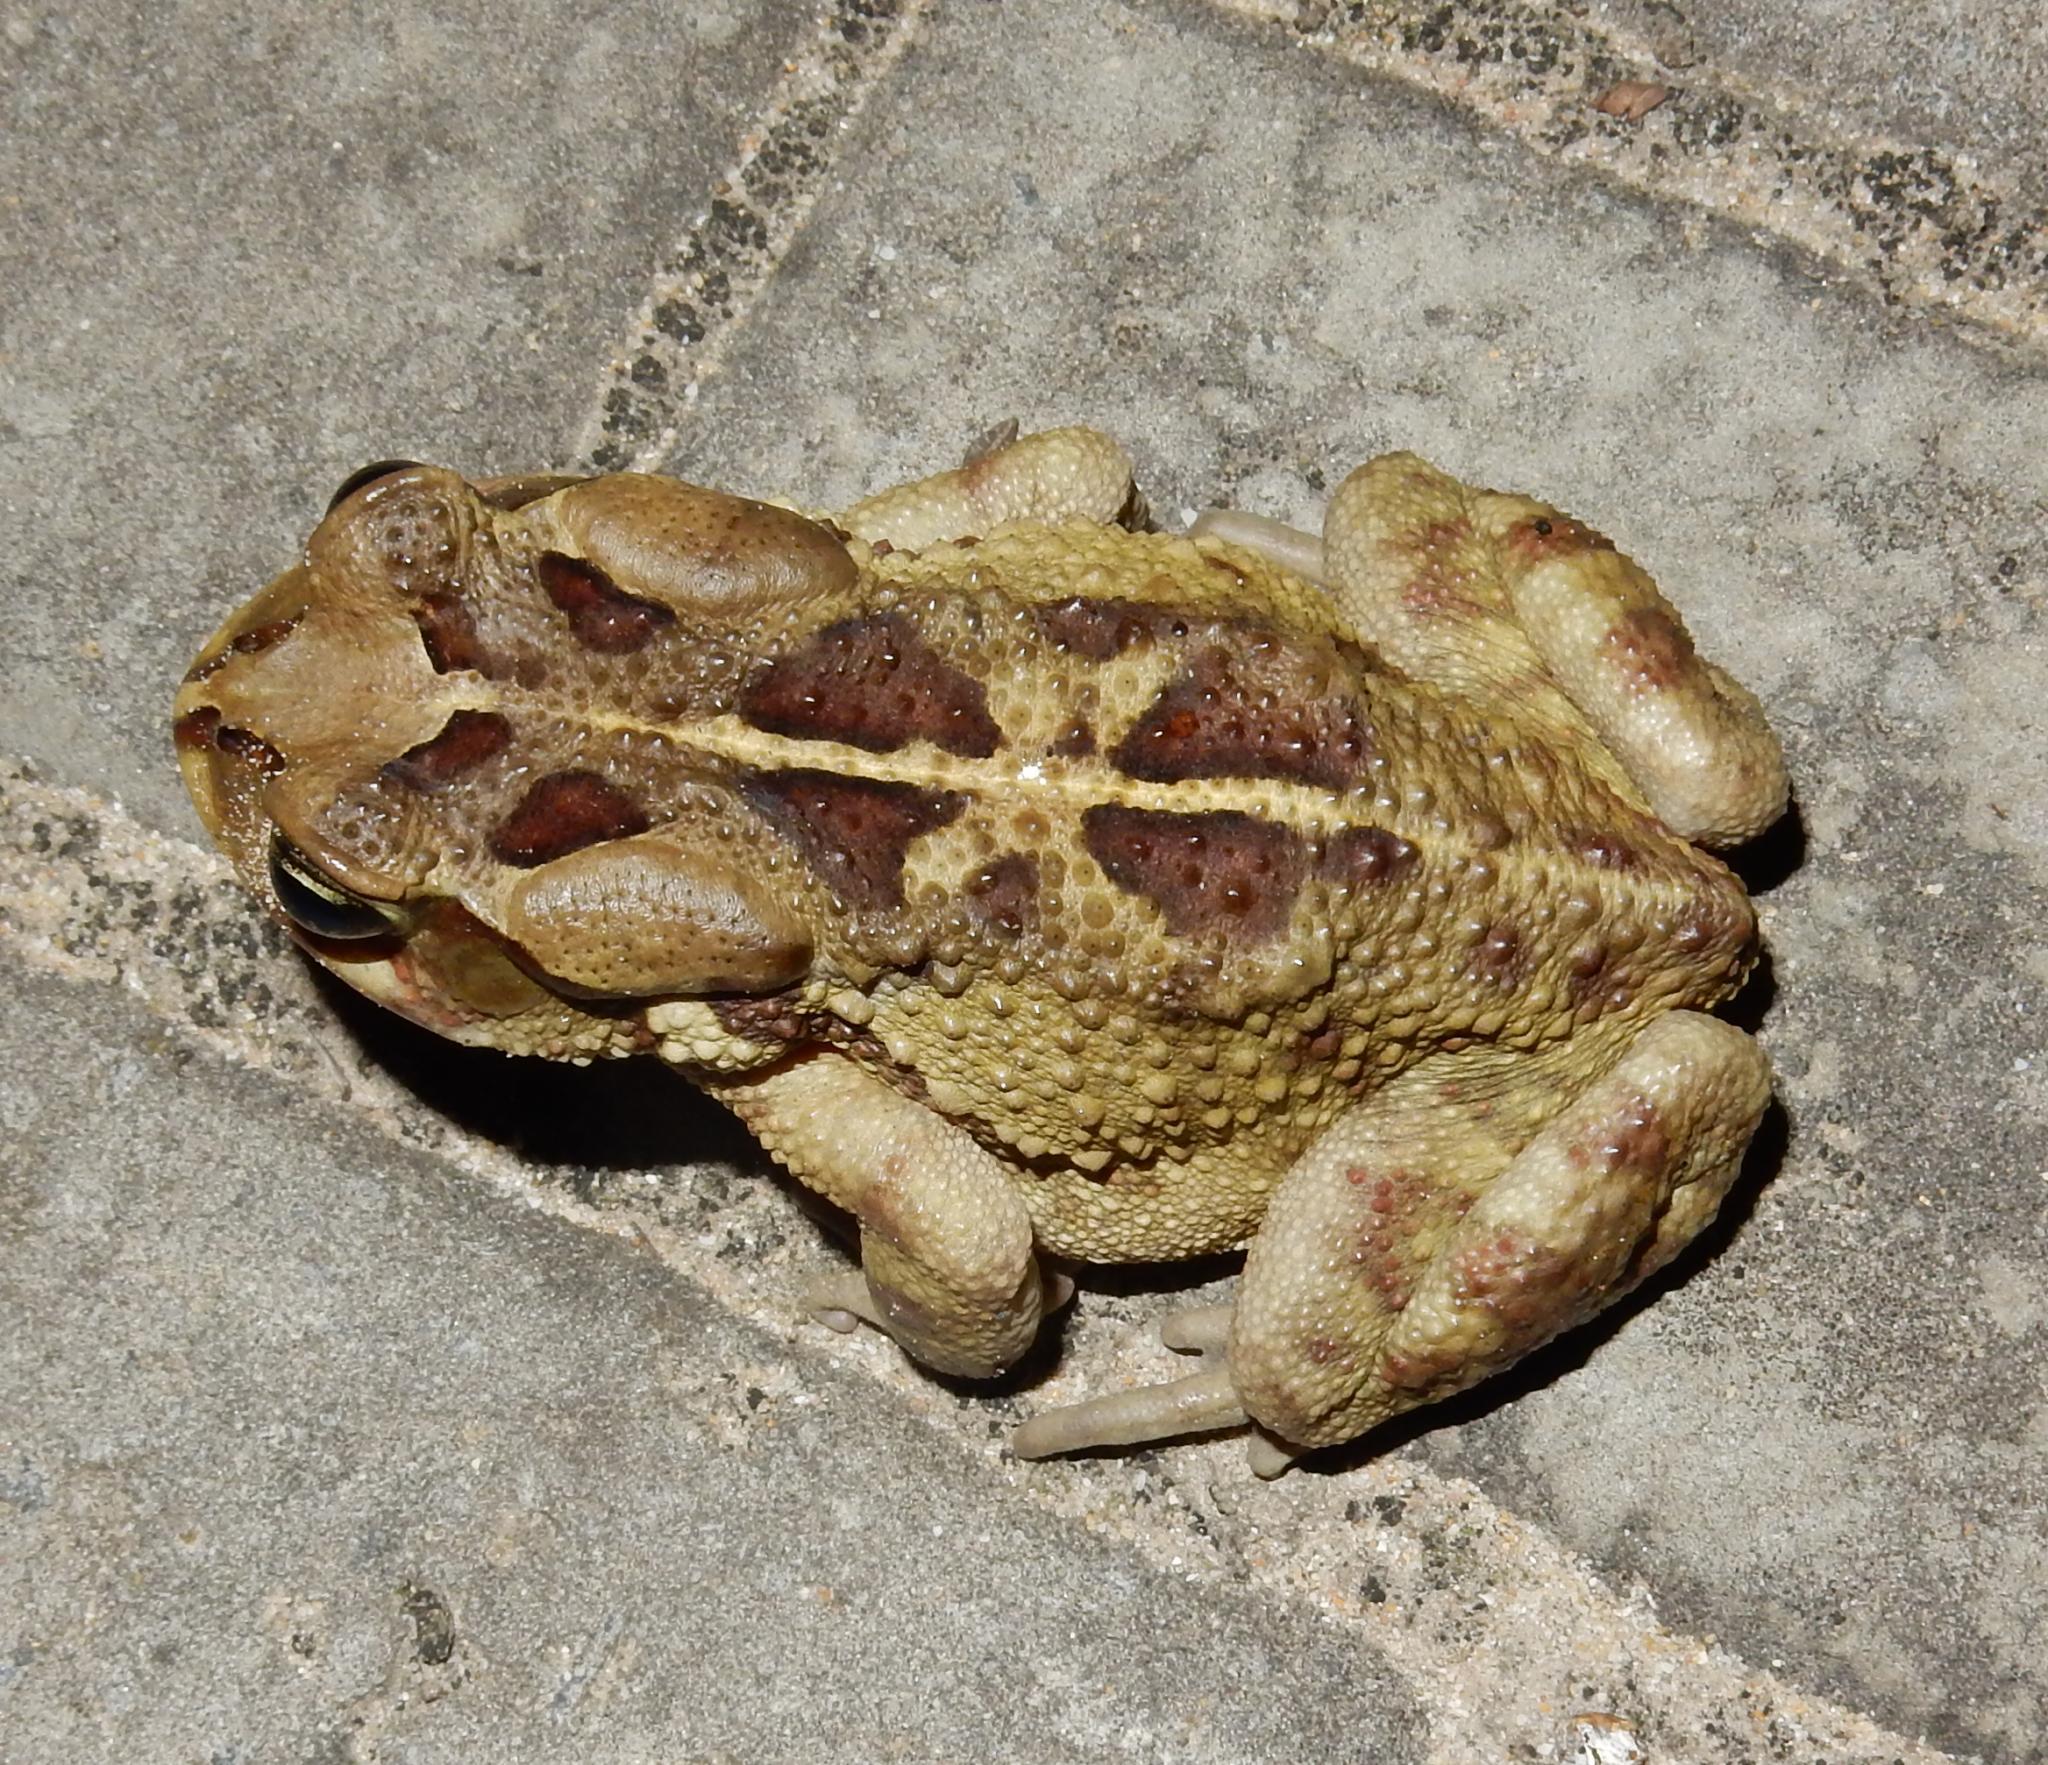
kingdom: Animalia
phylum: Chordata
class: Amphibia
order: Anura
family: Bufonidae
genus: Sclerophrys
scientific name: Sclerophrys pardalis
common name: Eastern leopard toad
